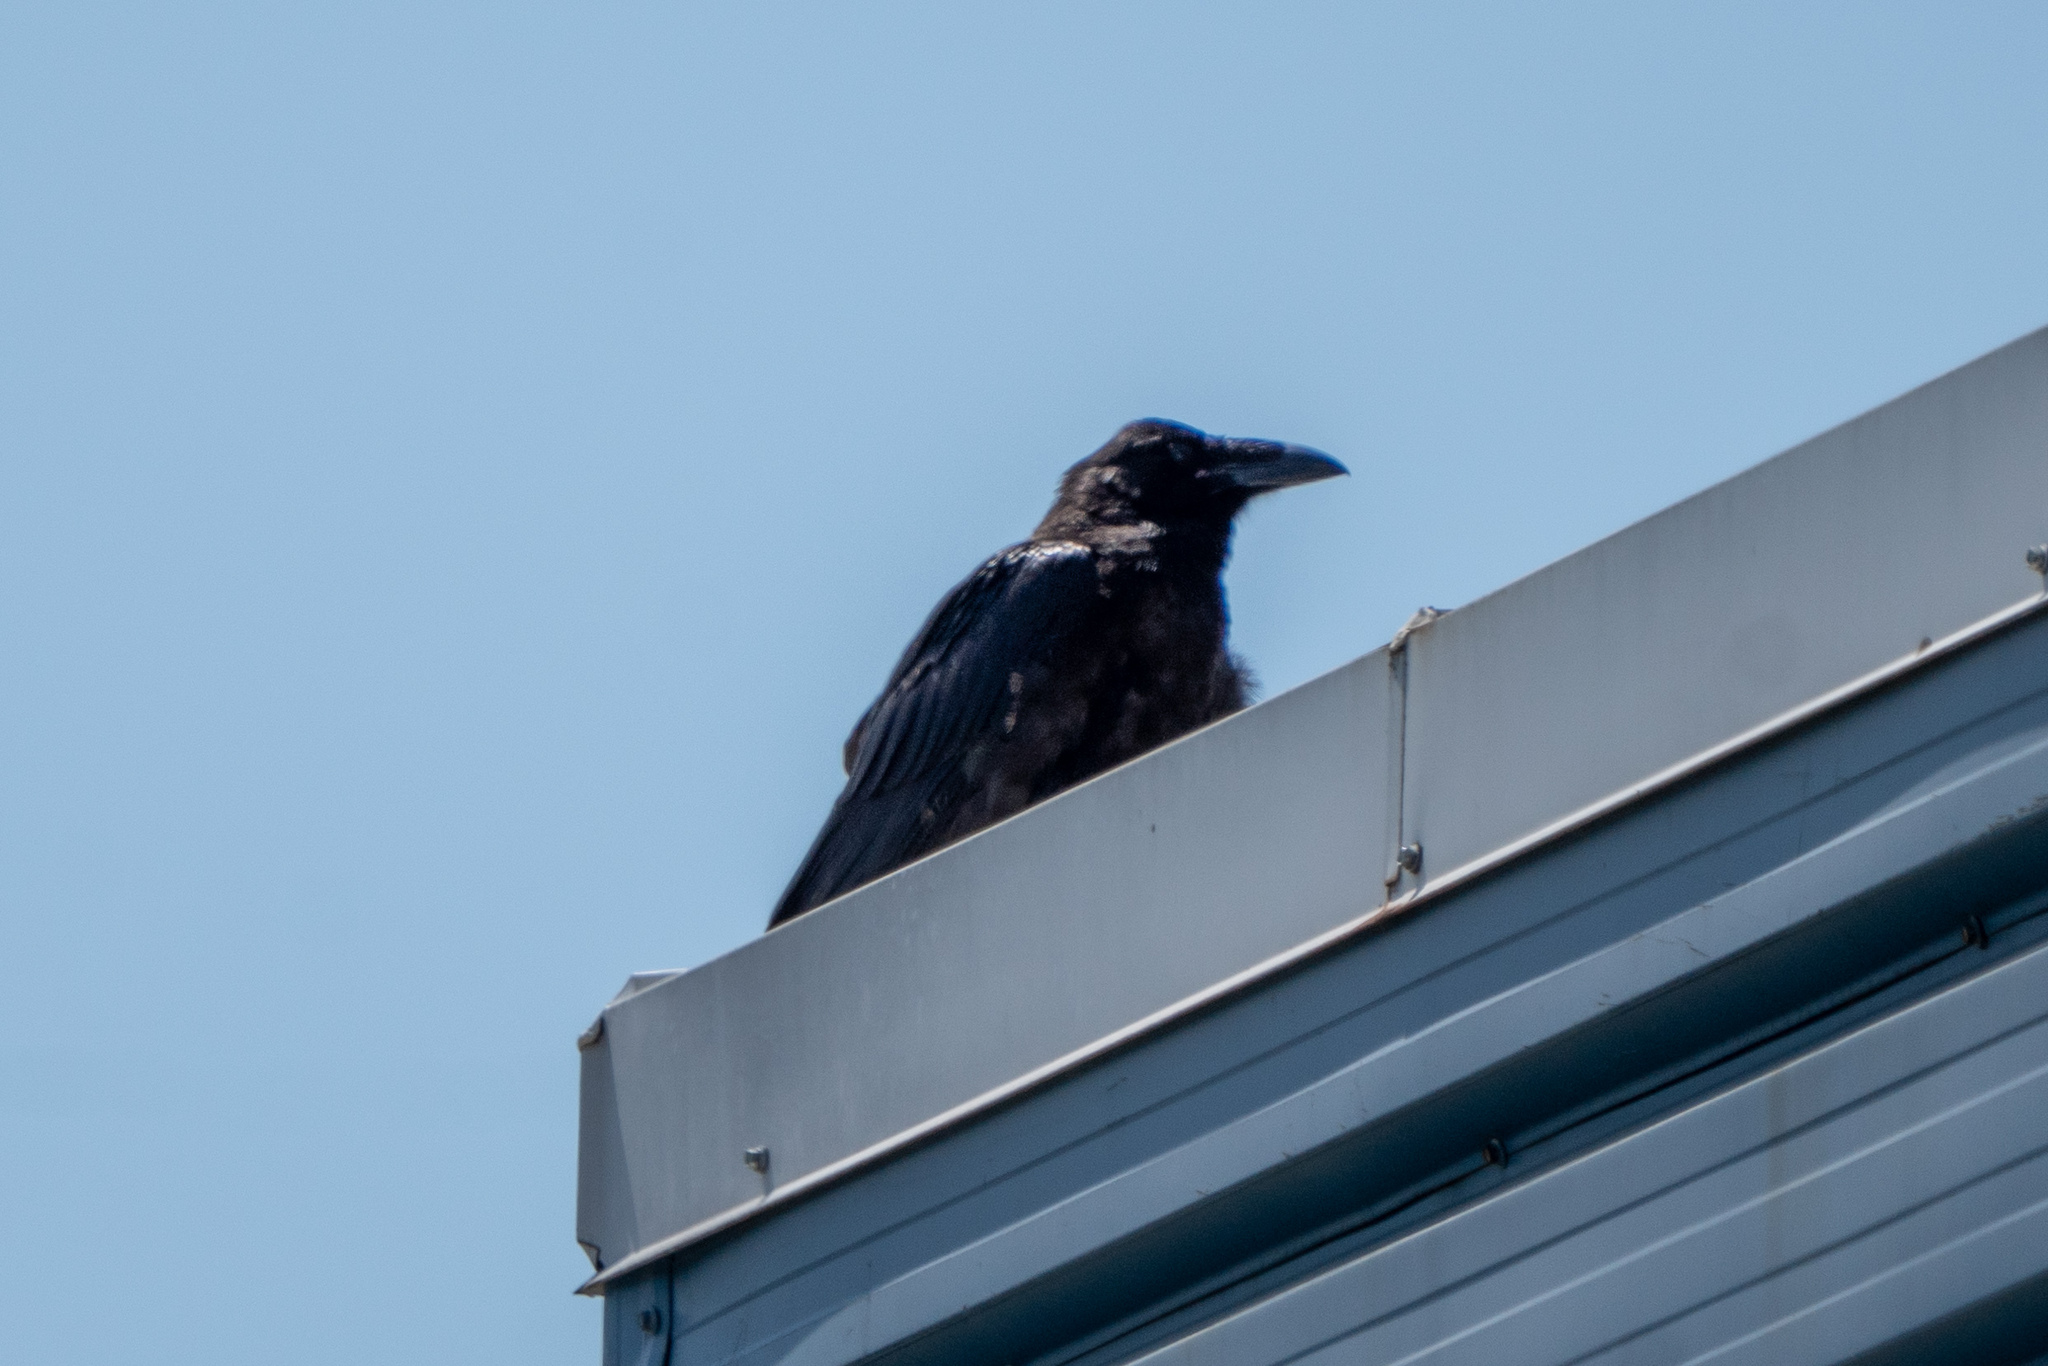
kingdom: Animalia
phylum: Chordata
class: Aves
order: Passeriformes
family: Corvidae
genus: Corvus
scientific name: Corvus corax
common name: Common raven
